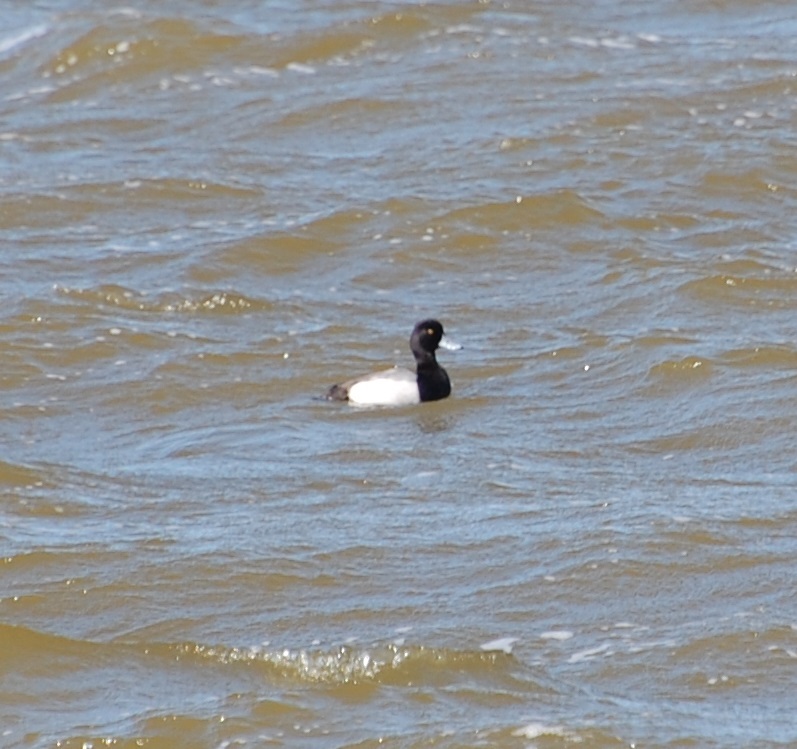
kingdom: Animalia
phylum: Chordata
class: Aves
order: Anseriformes
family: Anatidae
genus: Aythya
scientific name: Aythya affinis
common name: Lesser scaup
